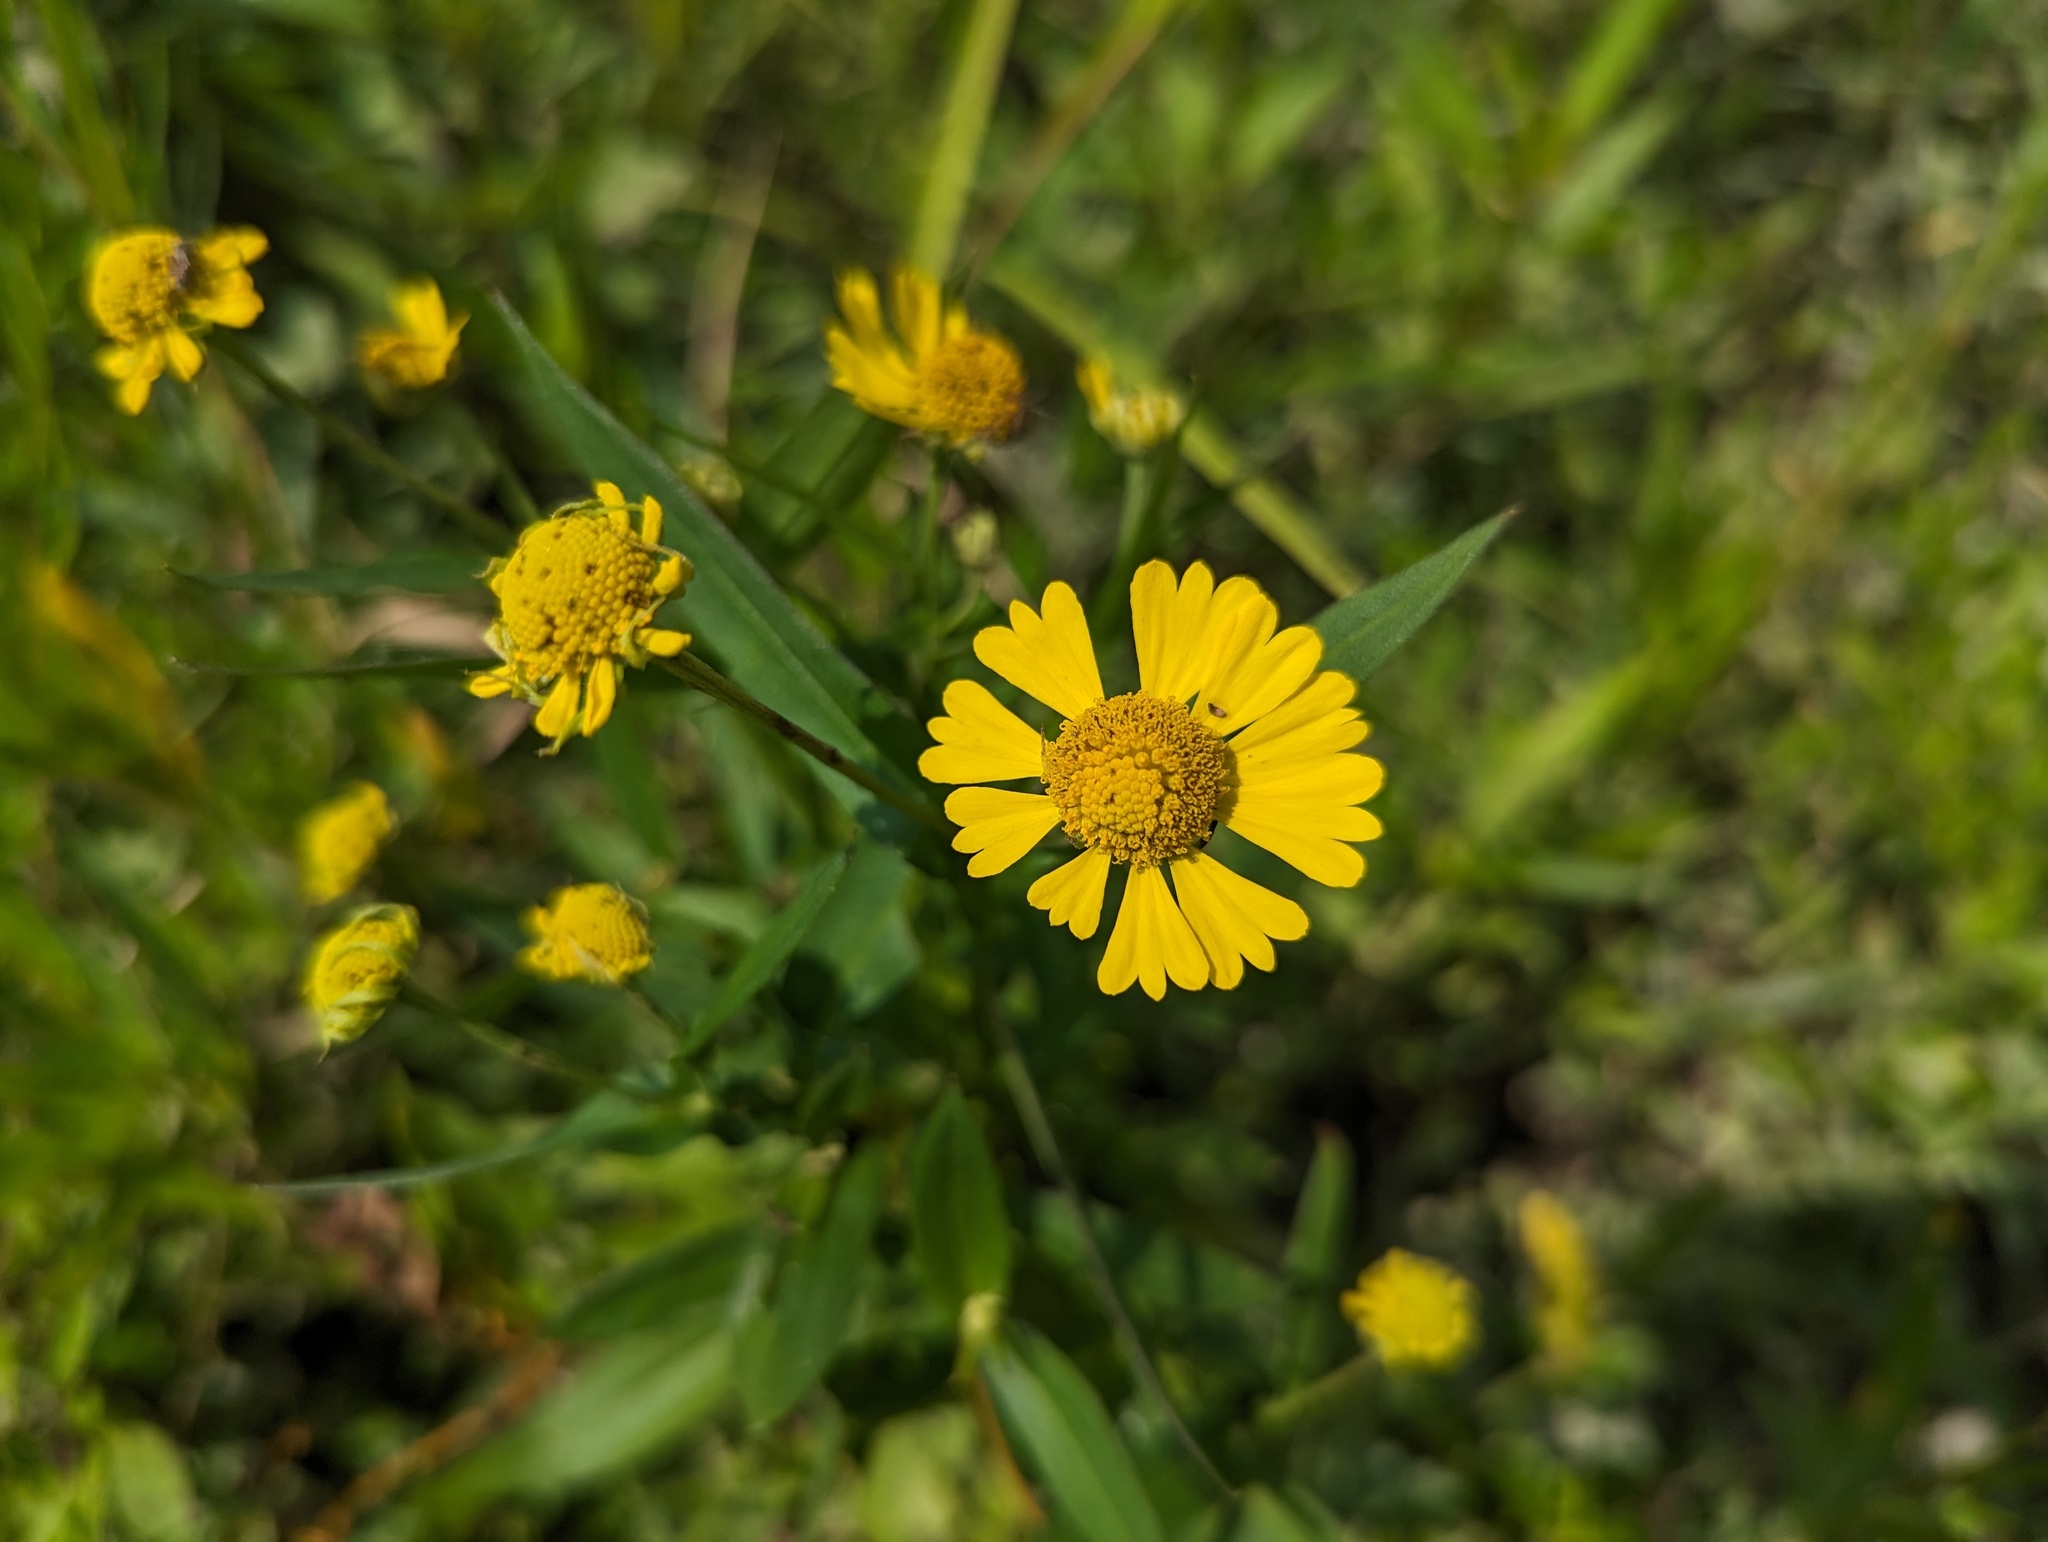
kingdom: Plantae
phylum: Tracheophyta
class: Magnoliopsida
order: Asterales
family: Asteraceae
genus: Helenium
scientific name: Helenium autumnale
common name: Sneezeweed
